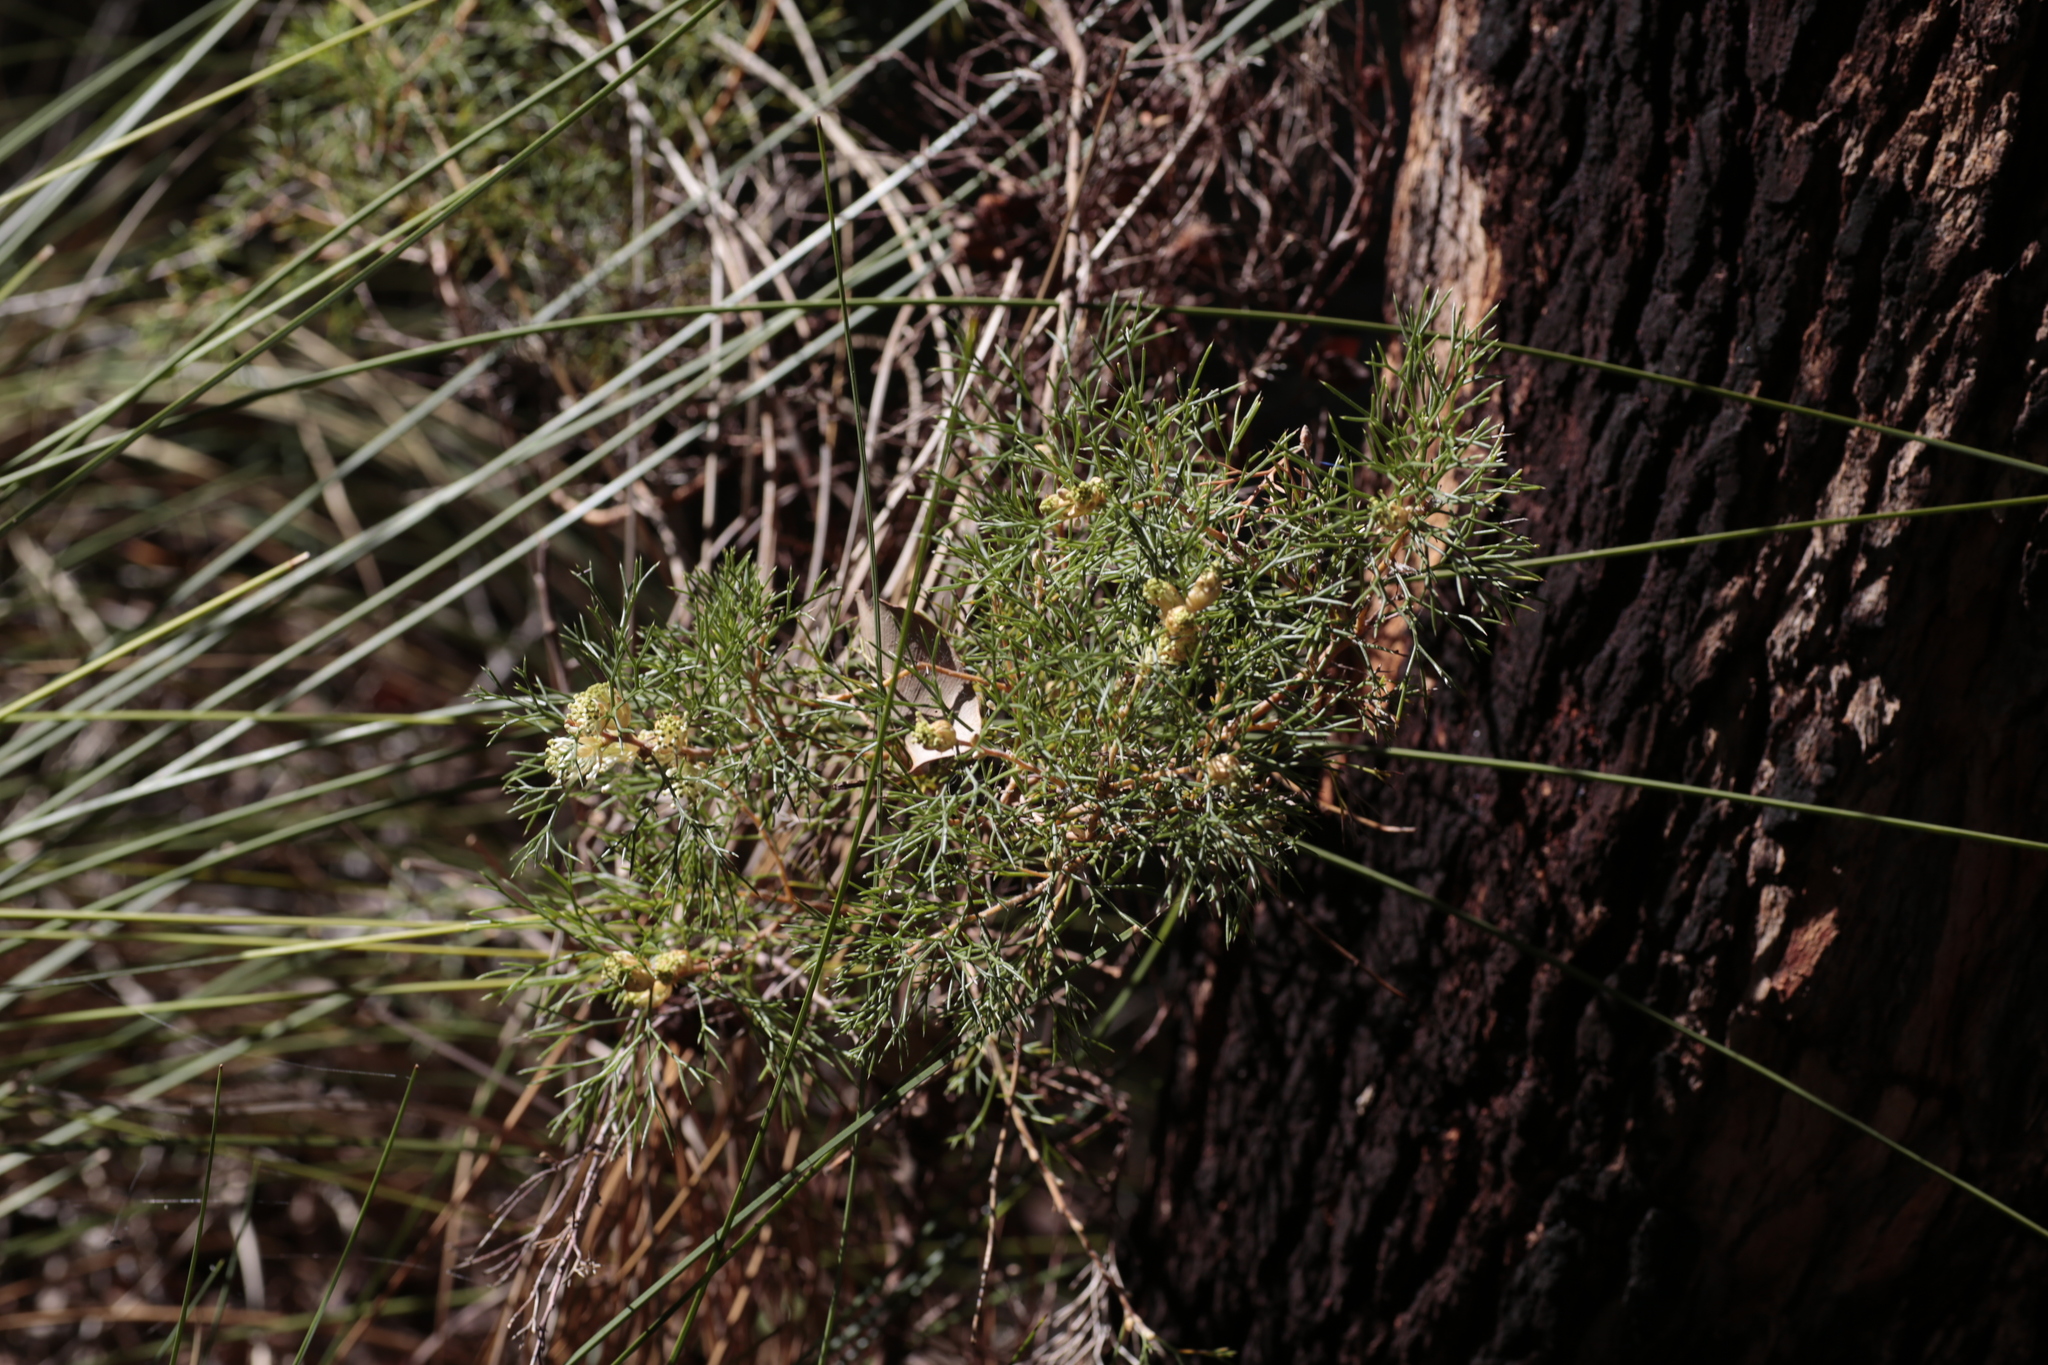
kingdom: Plantae
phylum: Tracheophyta
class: Magnoliopsida
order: Proteales
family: Proteaceae
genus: Hakea
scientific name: Hakea lissocarpha
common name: Honey bush
